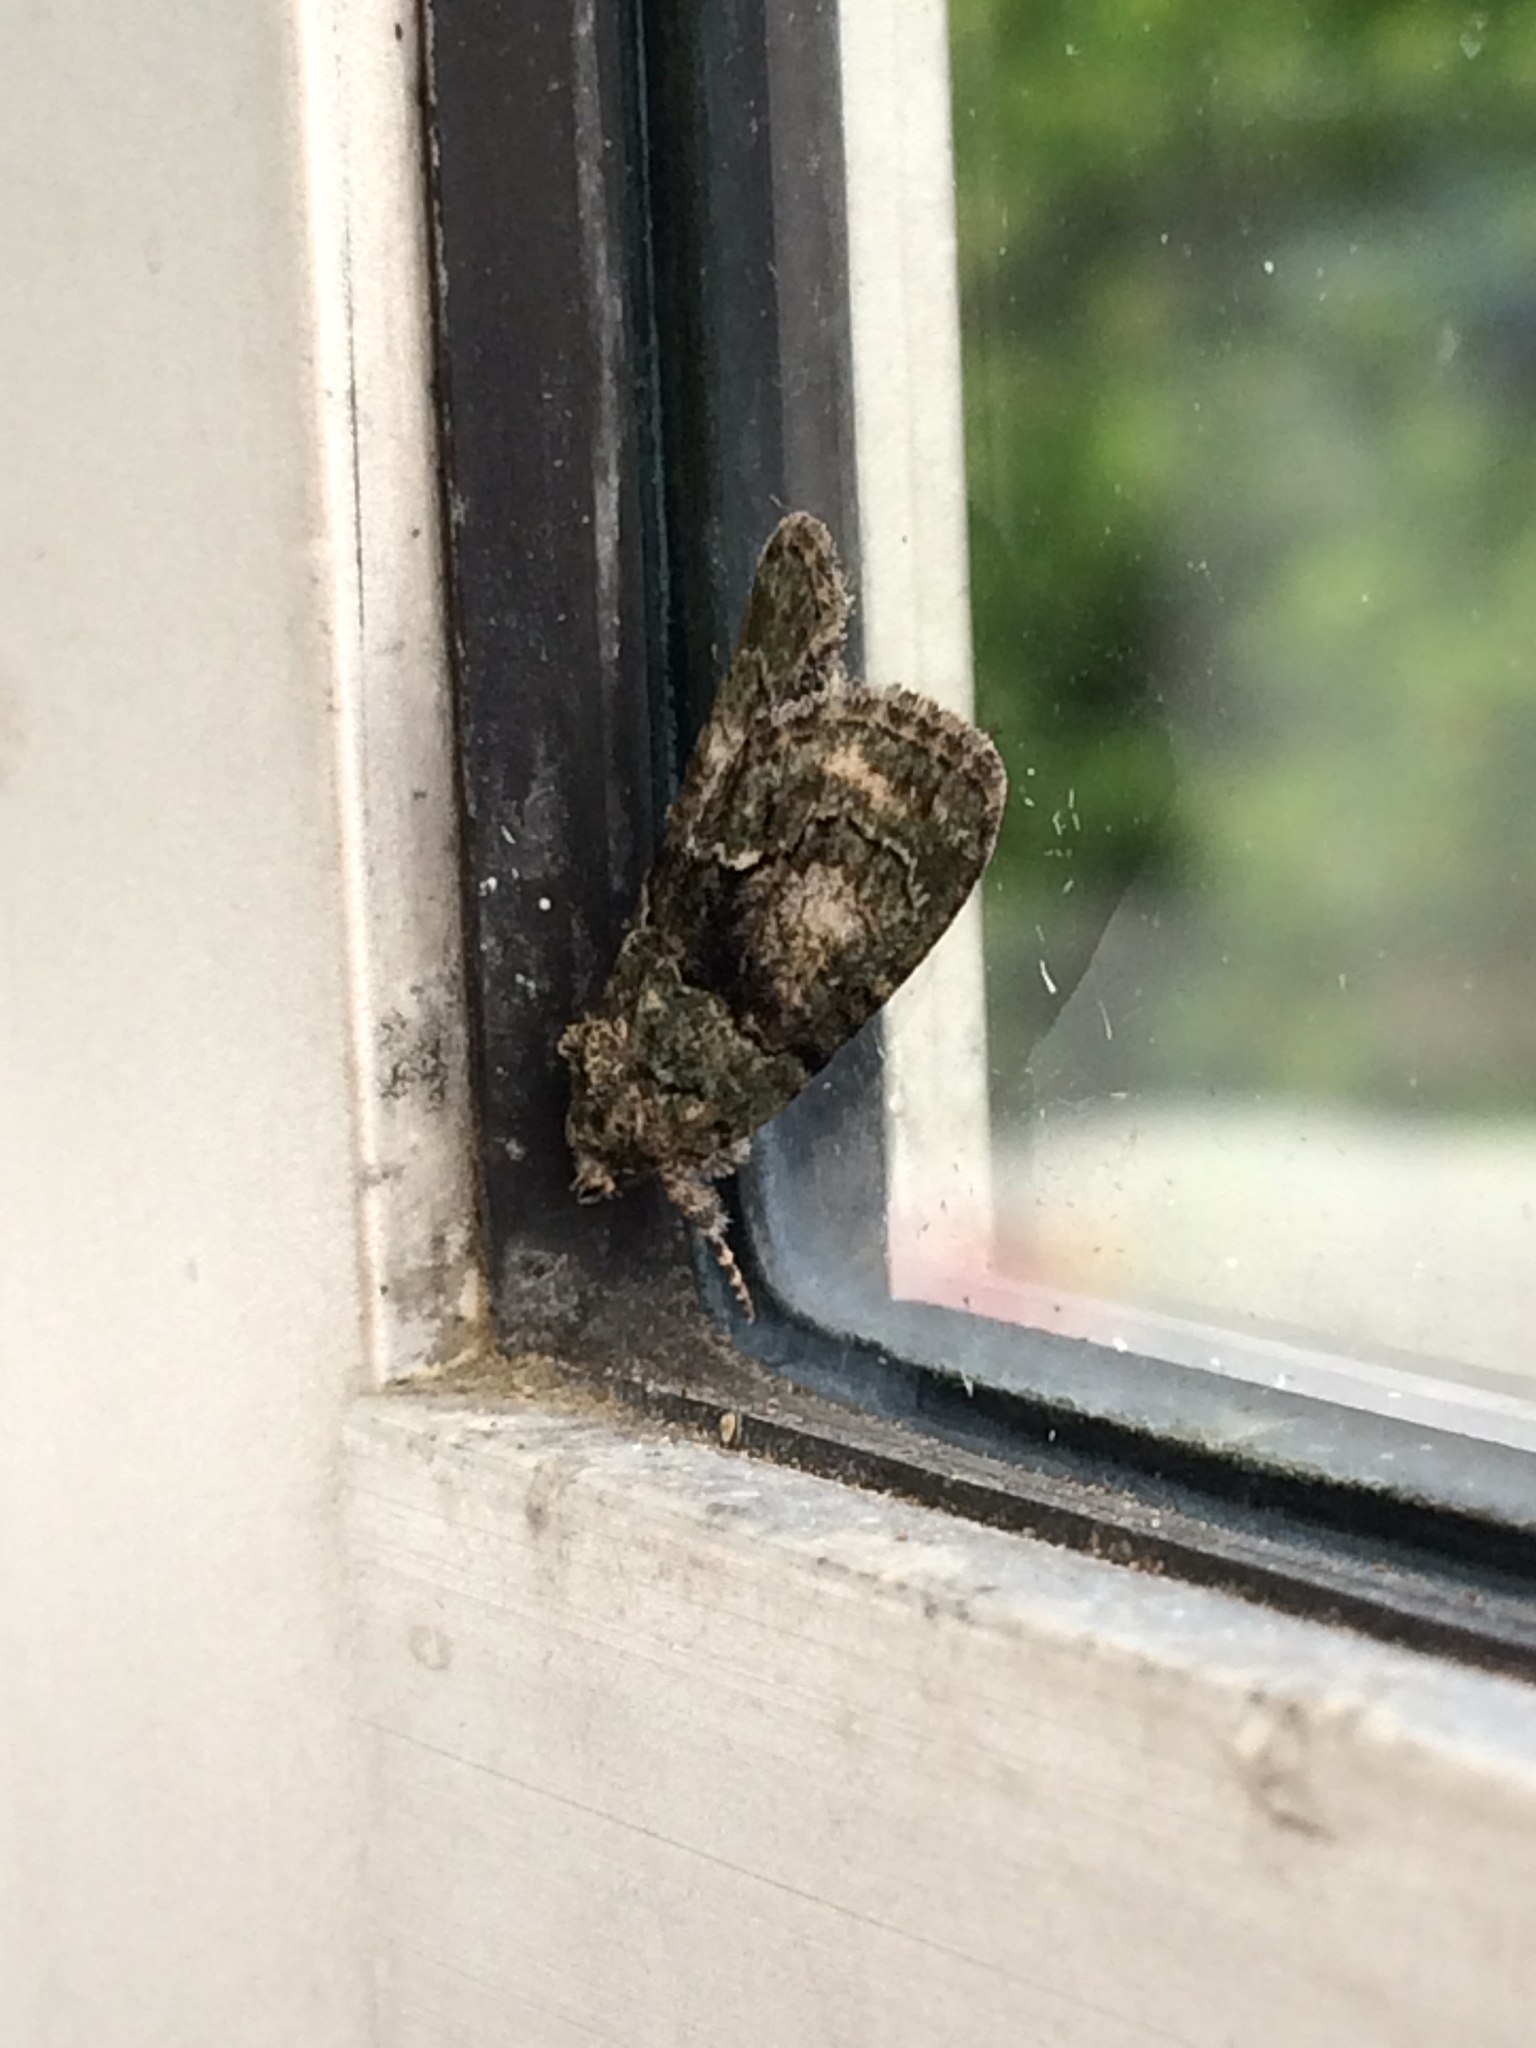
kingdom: Animalia
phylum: Arthropoda
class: Insecta
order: Lepidoptera
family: Noctuidae
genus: Cryphia
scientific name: Cryphia algae
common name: Tree-lichen beauty
